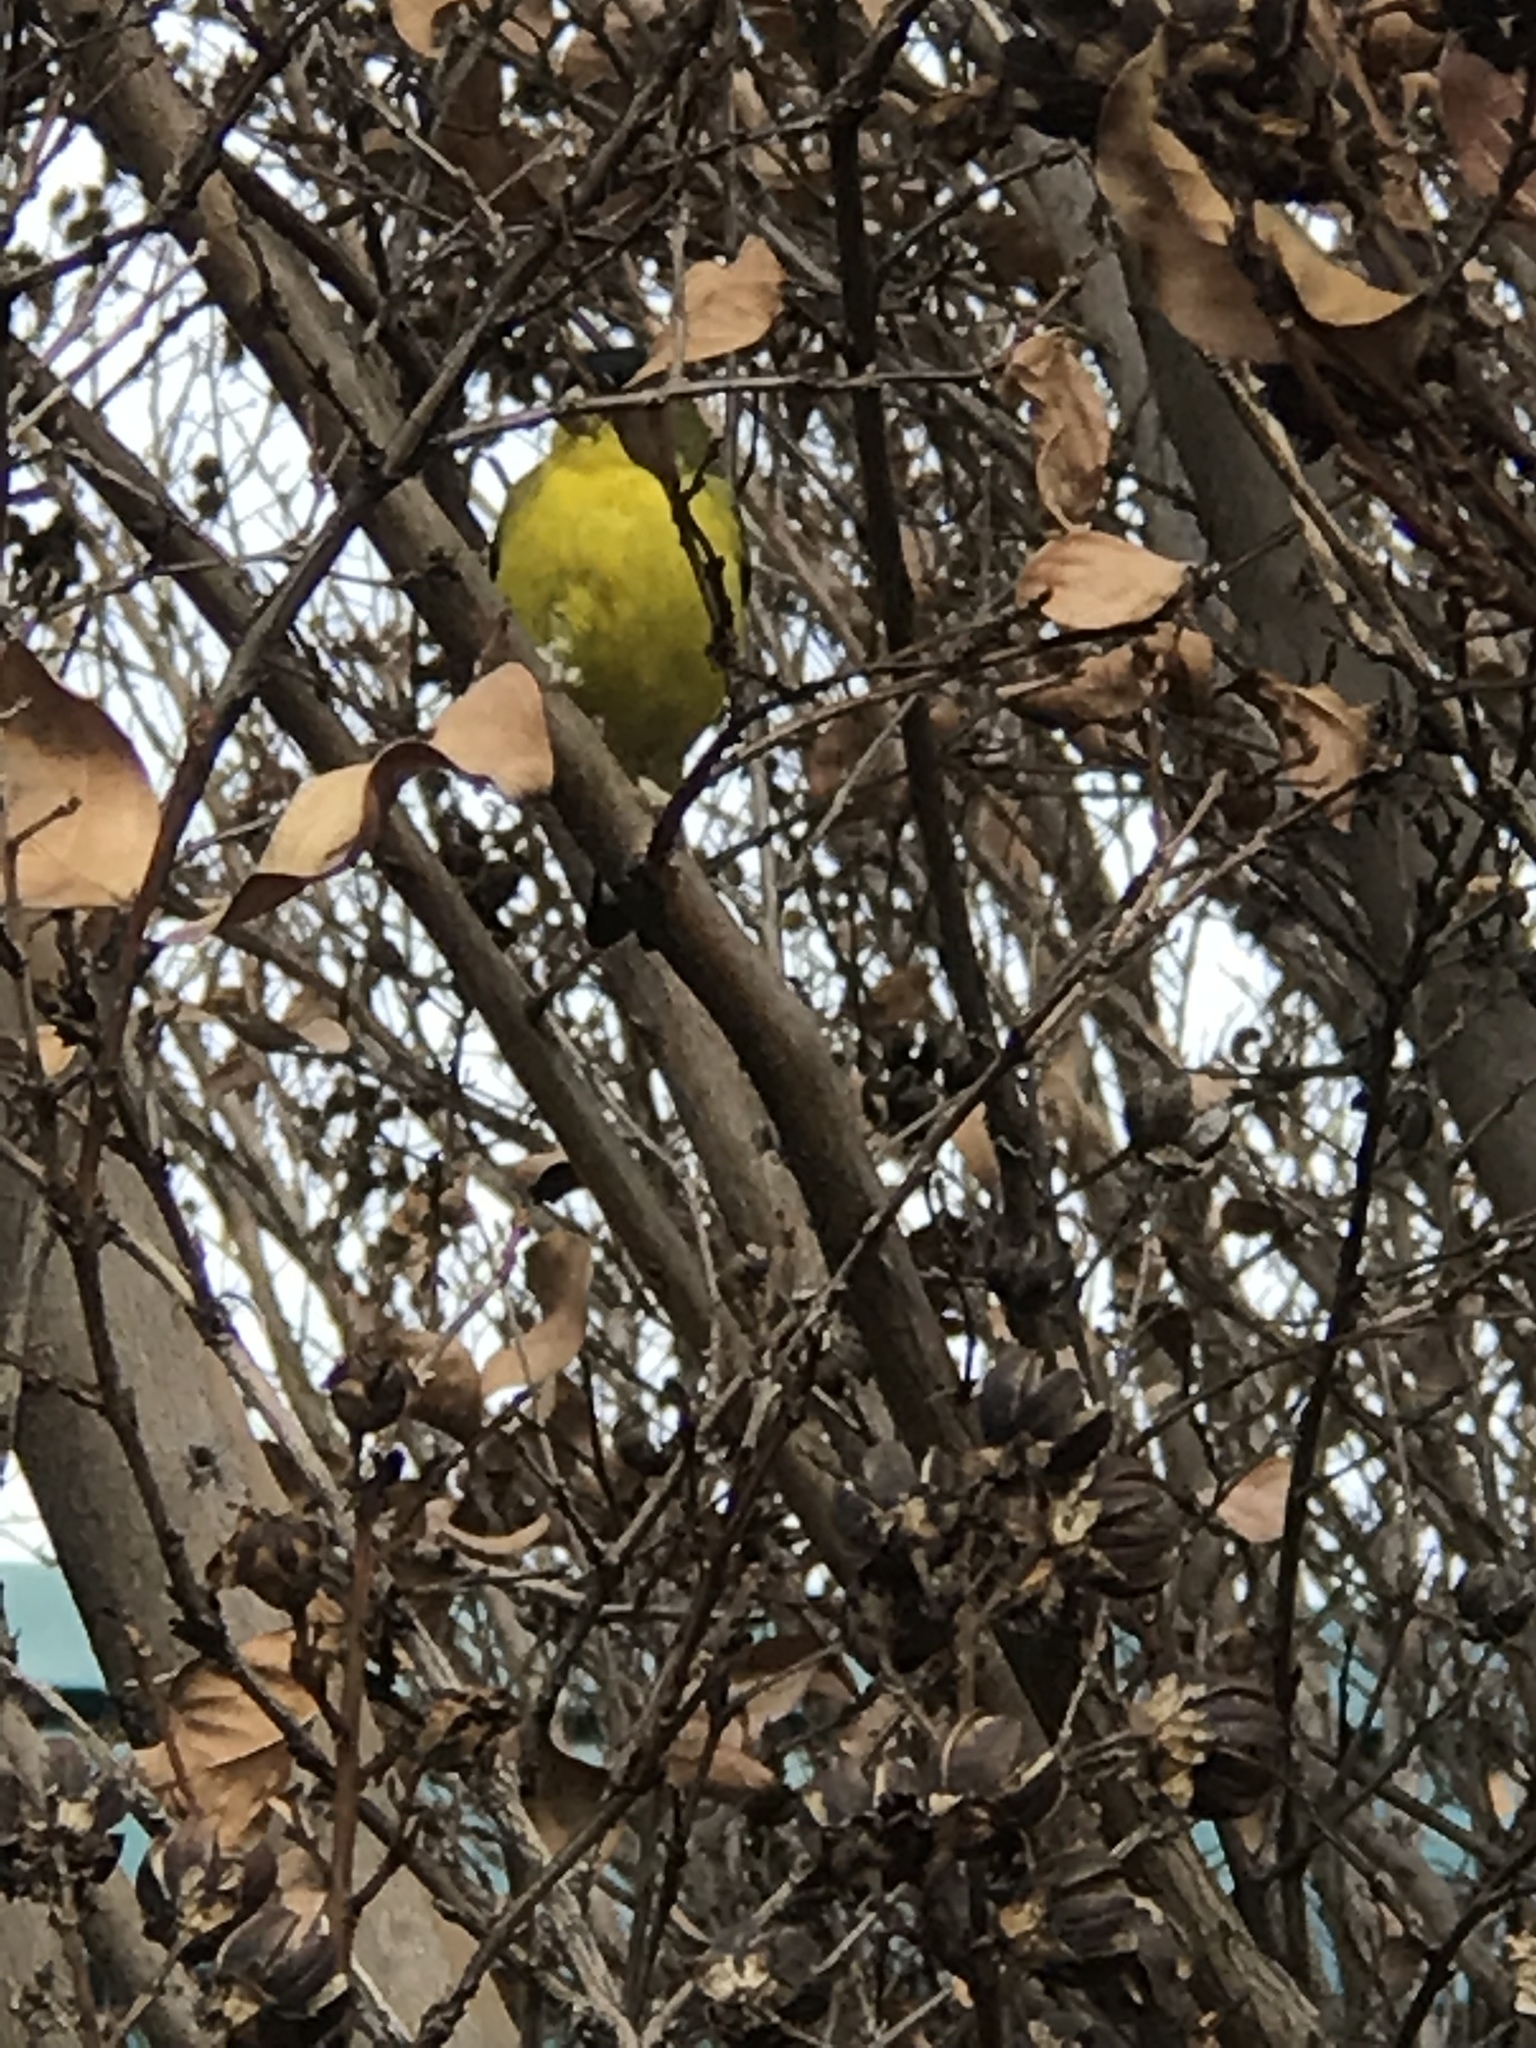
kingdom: Animalia
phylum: Chordata
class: Aves
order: Passeriformes
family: Fringillidae
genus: Spinus
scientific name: Spinus psaltria
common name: Lesser goldfinch
